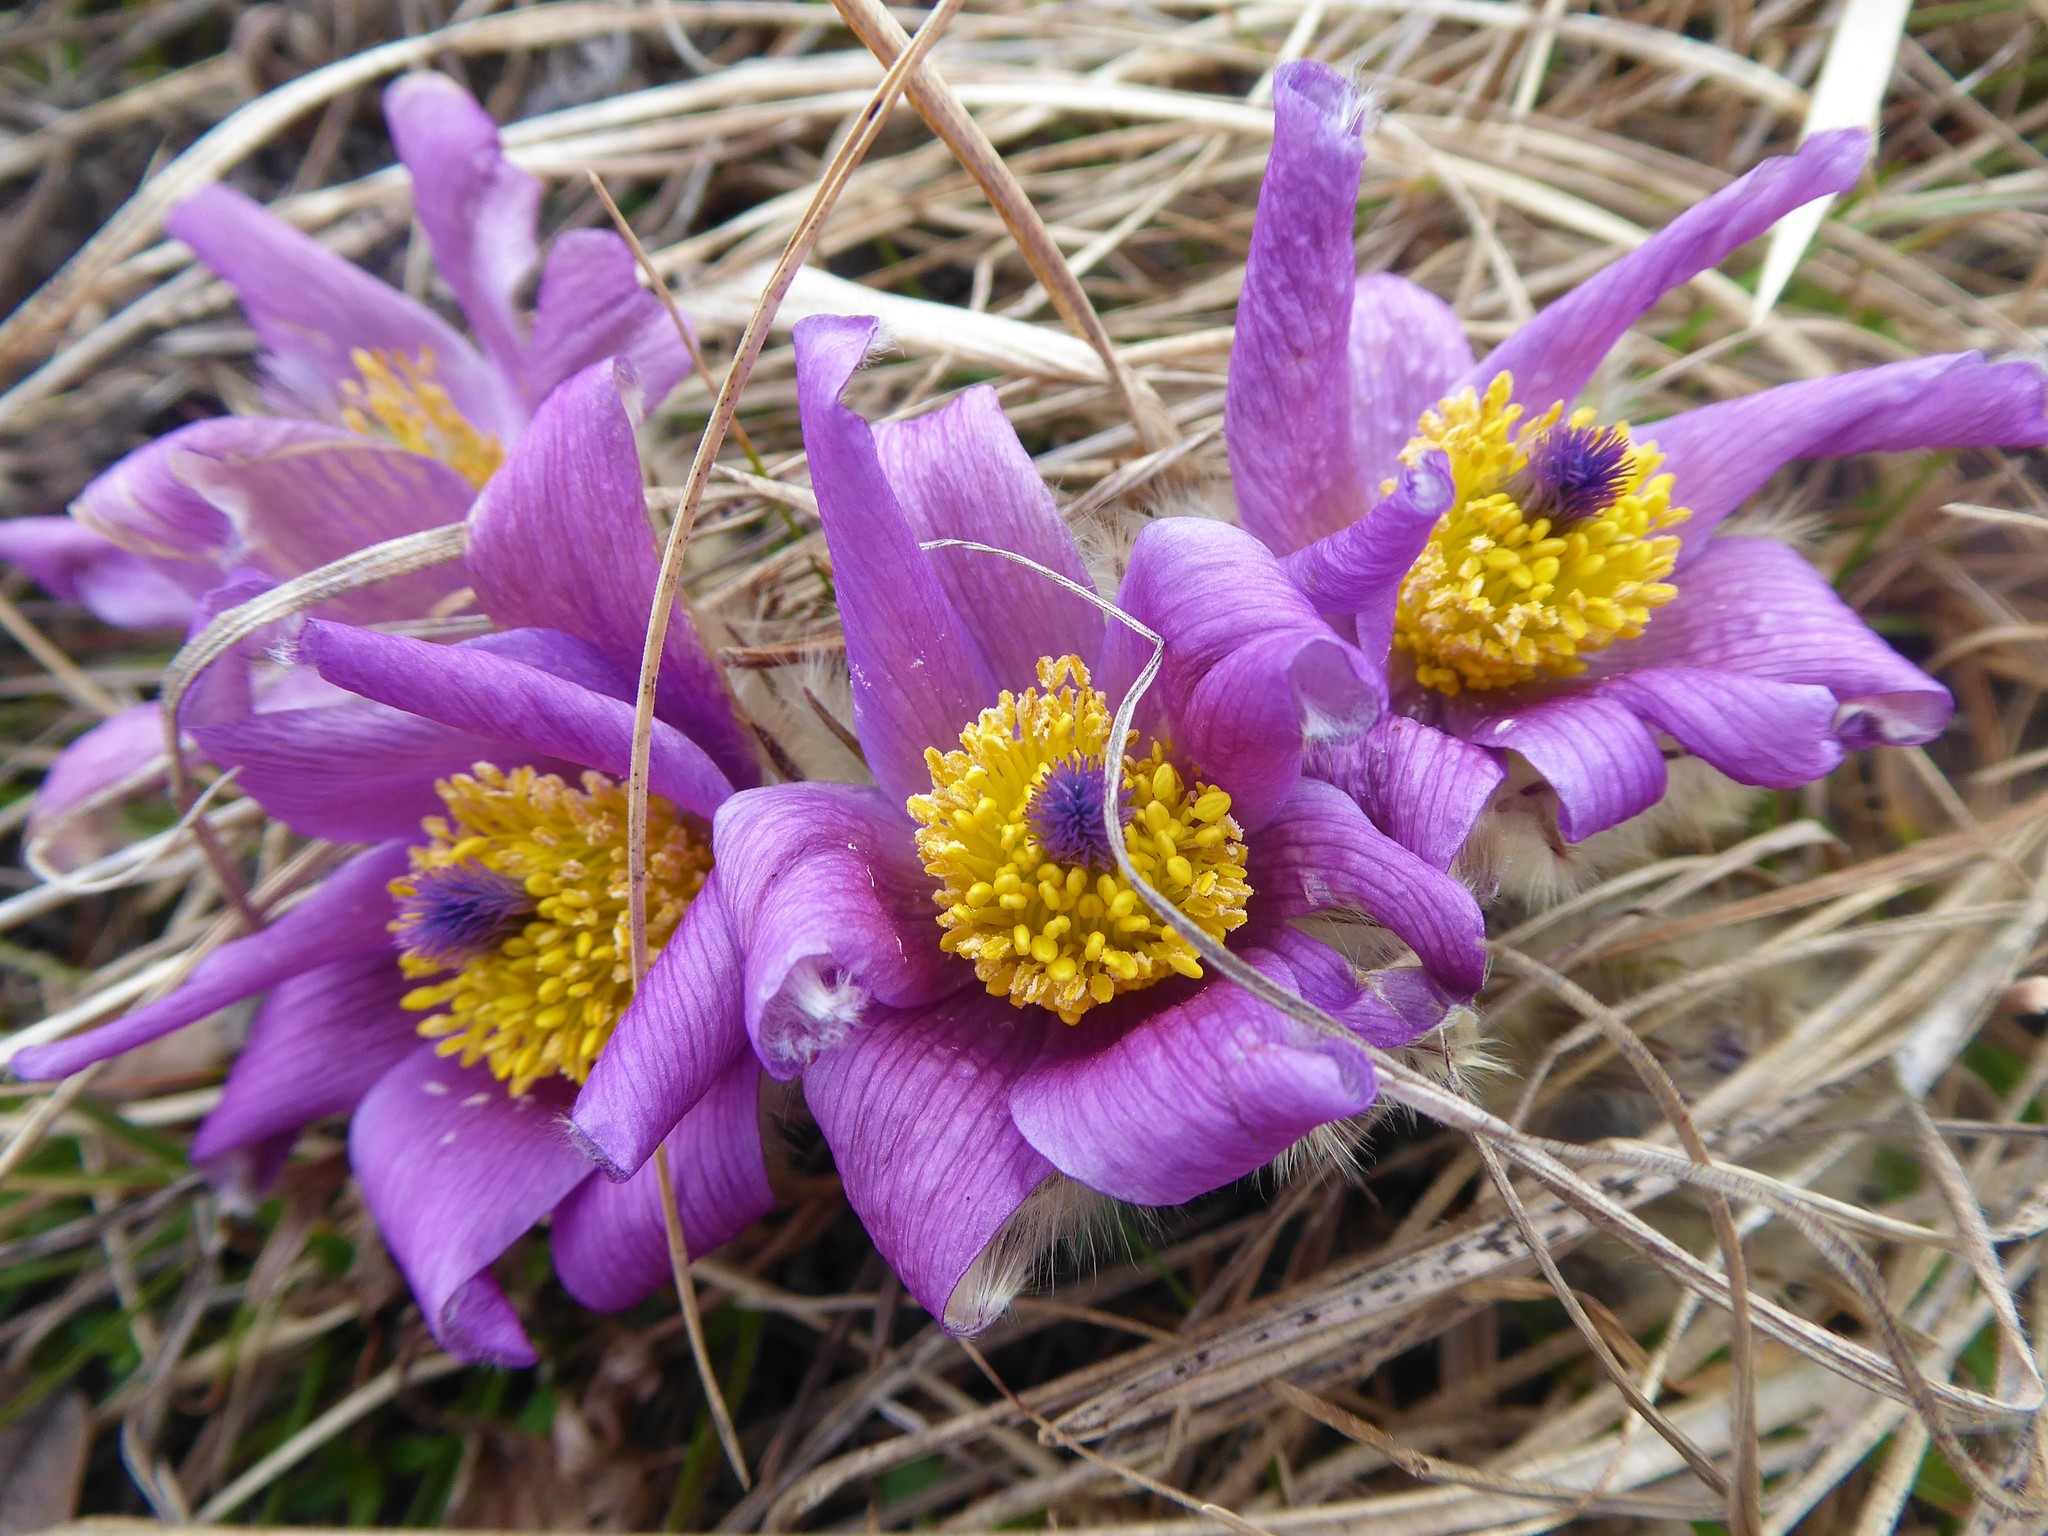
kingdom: Plantae
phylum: Tracheophyta
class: Magnoliopsida
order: Ranunculales
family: Ranunculaceae
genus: Pulsatilla
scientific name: Pulsatilla grandis
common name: Greater pasque flower
